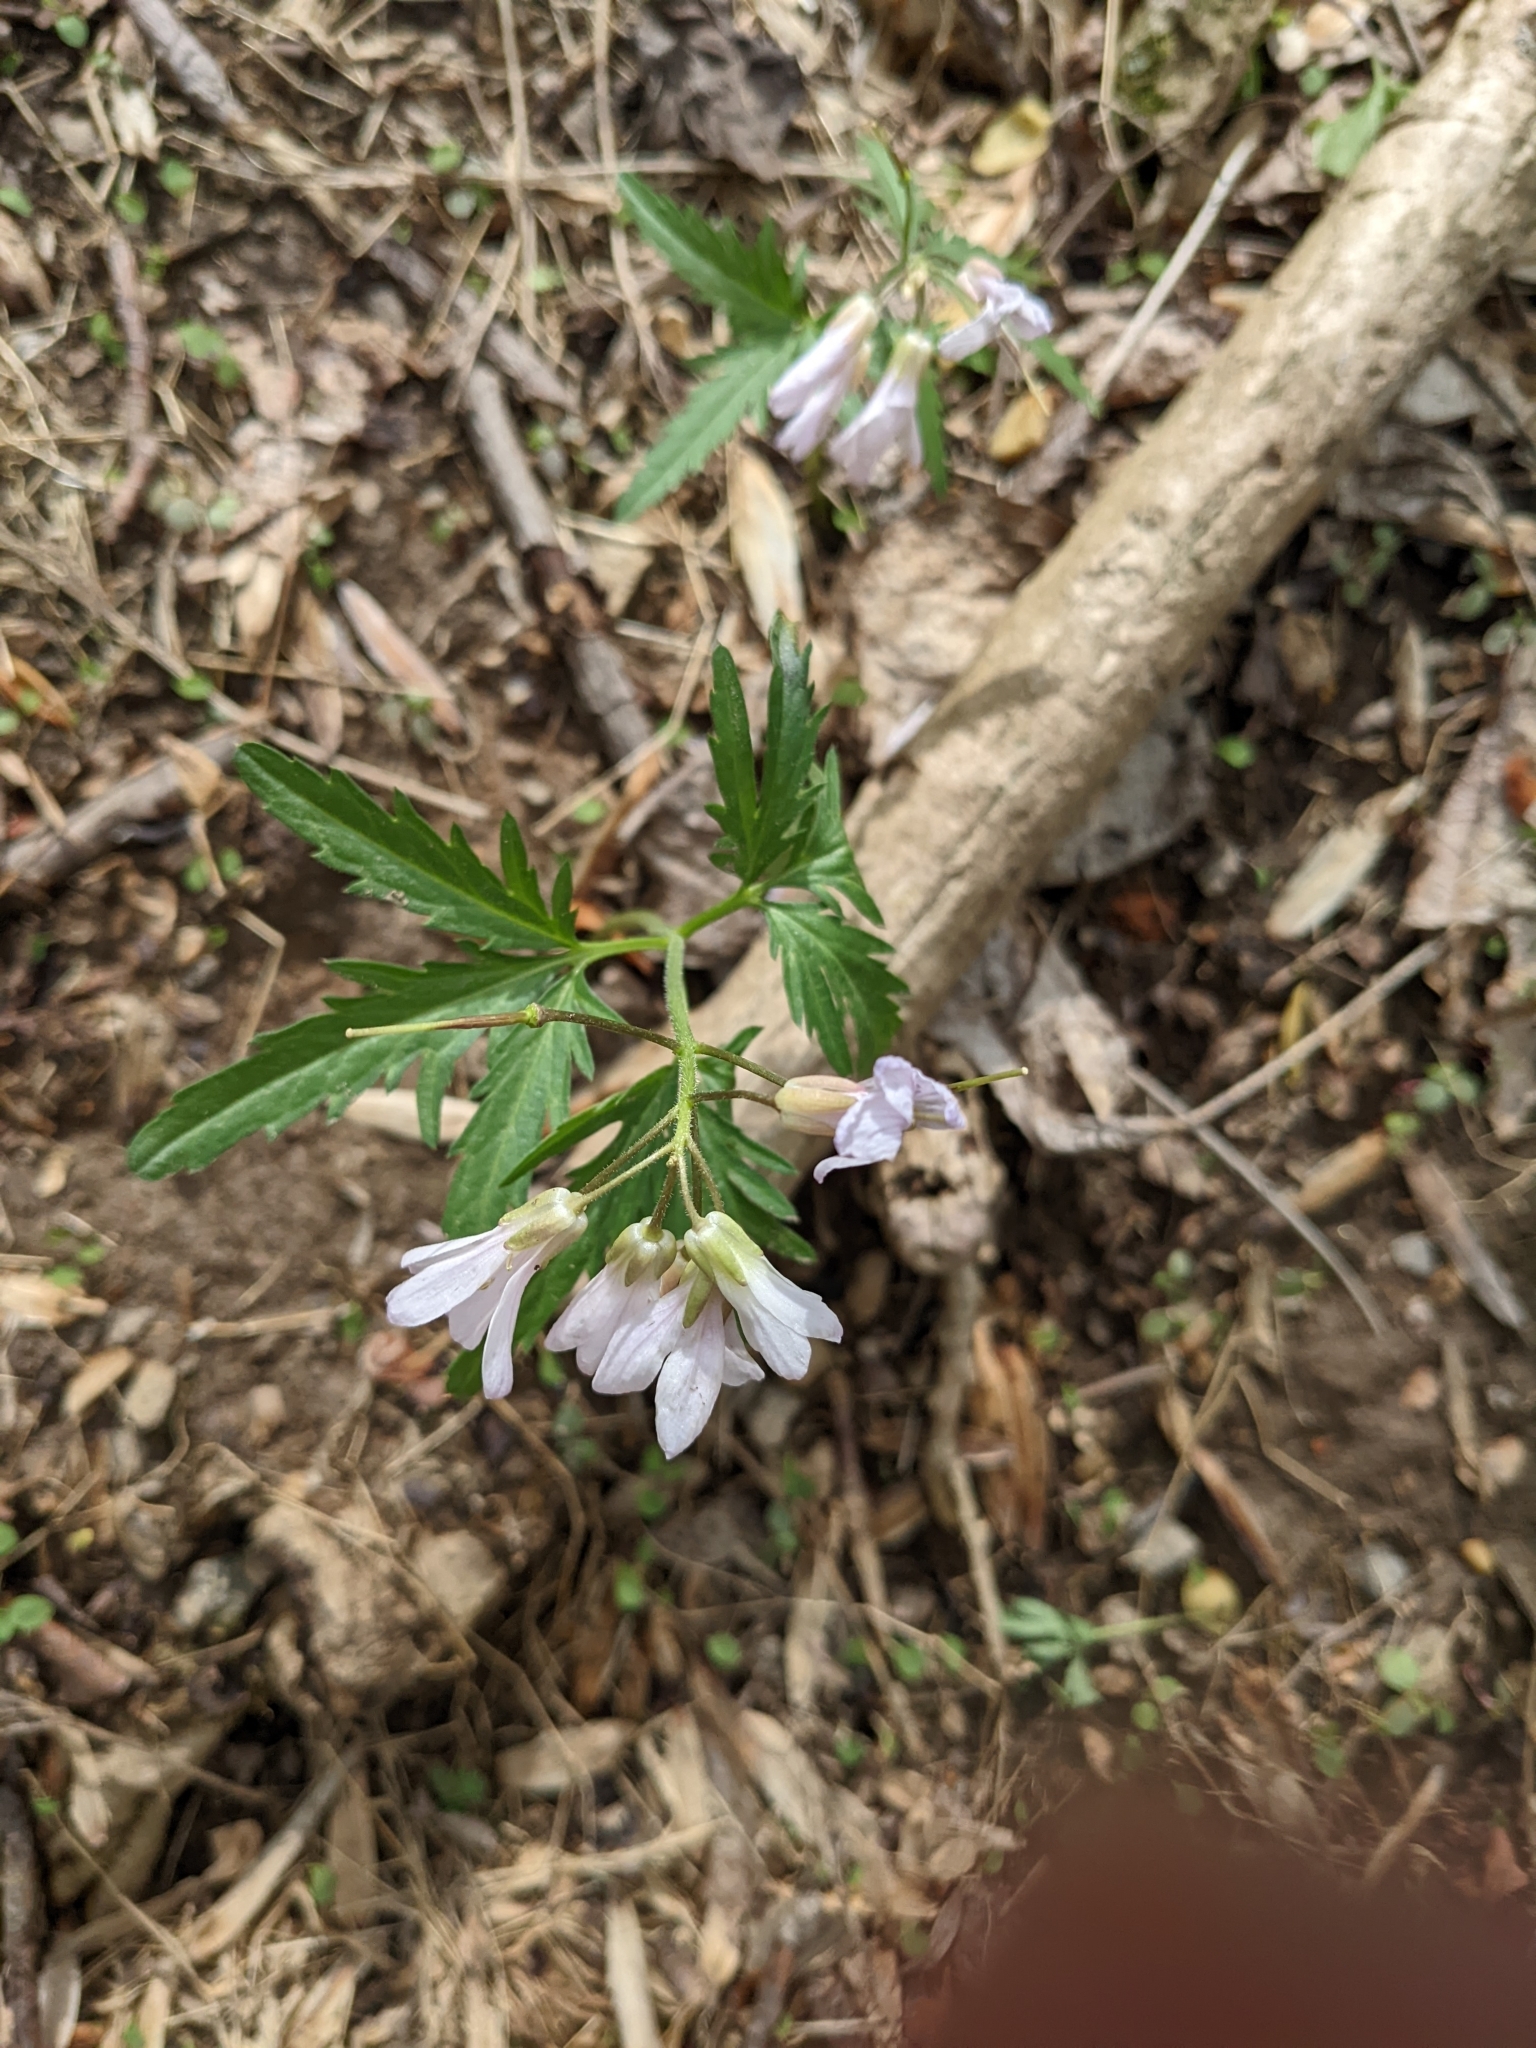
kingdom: Plantae
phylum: Tracheophyta
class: Magnoliopsida
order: Brassicales
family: Brassicaceae
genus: Cardamine
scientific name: Cardamine concatenata
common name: Cut-leaf toothcup
